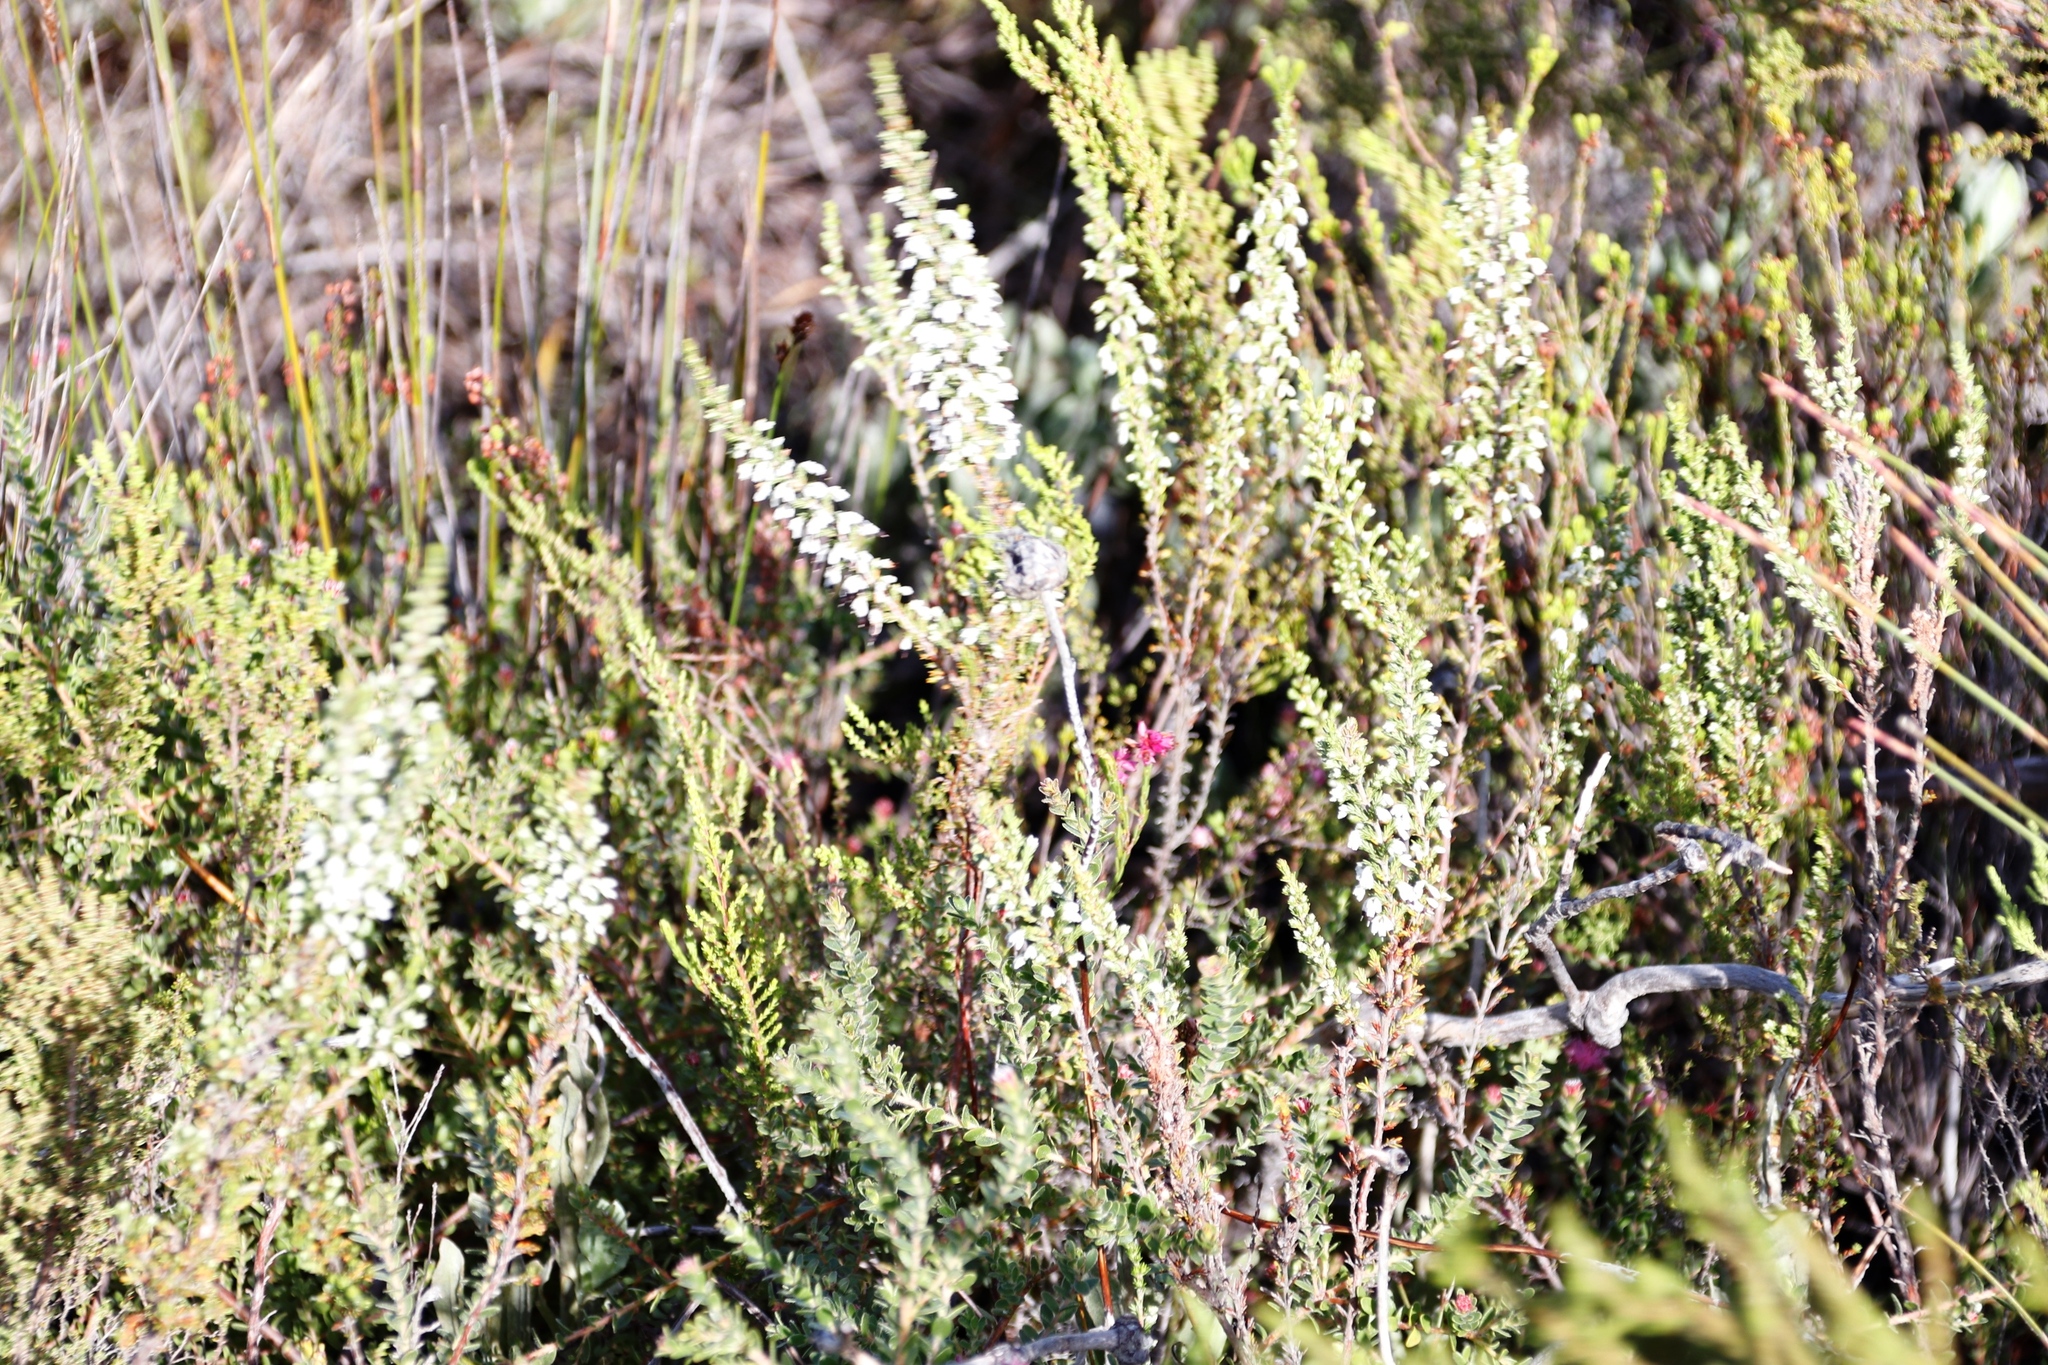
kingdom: Plantae
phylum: Tracheophyta
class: Magnoliopsida
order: Ericales
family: Ericaceae
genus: Erica
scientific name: Erica imbricata
